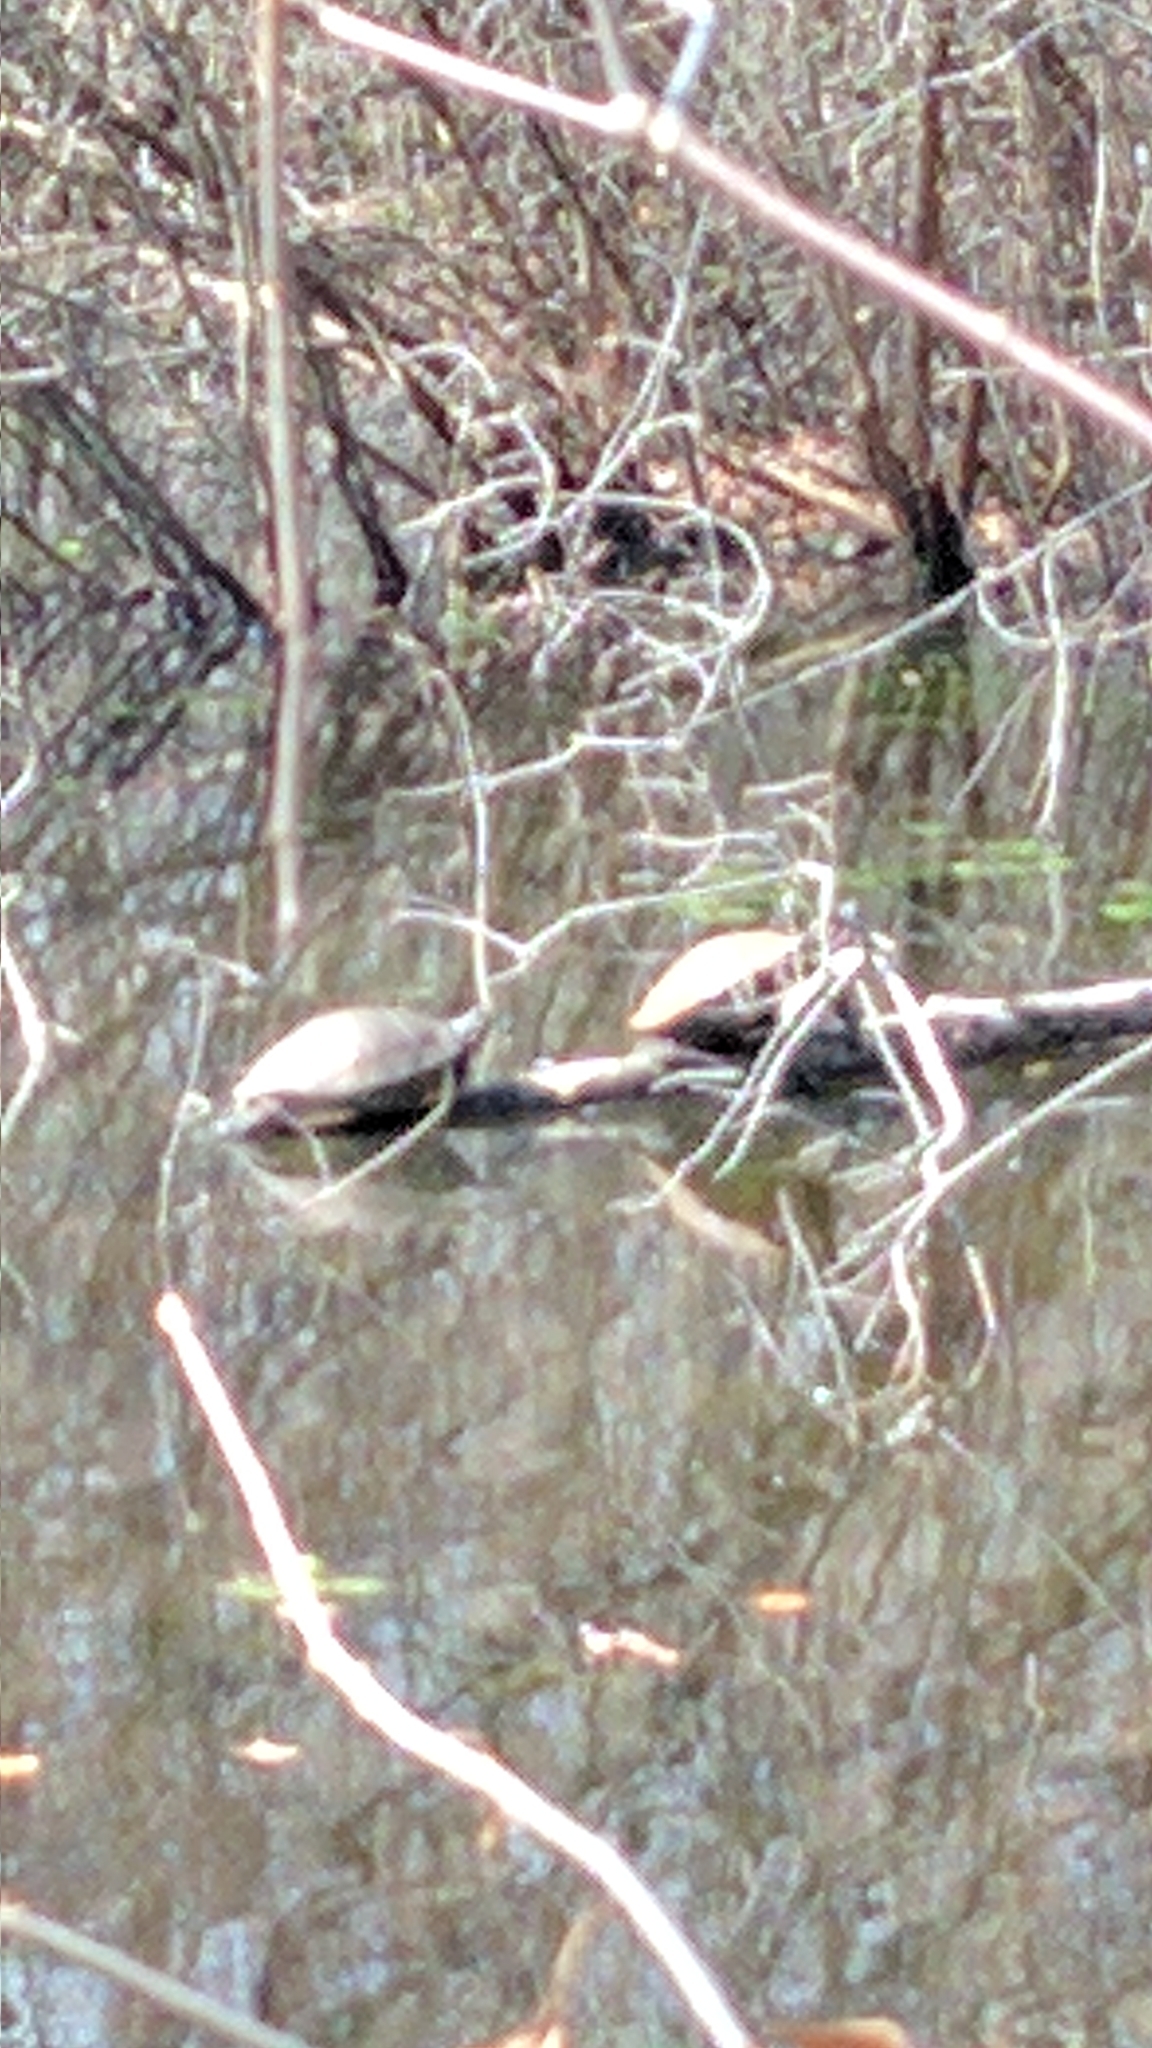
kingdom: Animalia
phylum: Chordata
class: Testudines
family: Emydidae
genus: Trachemys
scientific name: Trachemys scripta
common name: Slider
